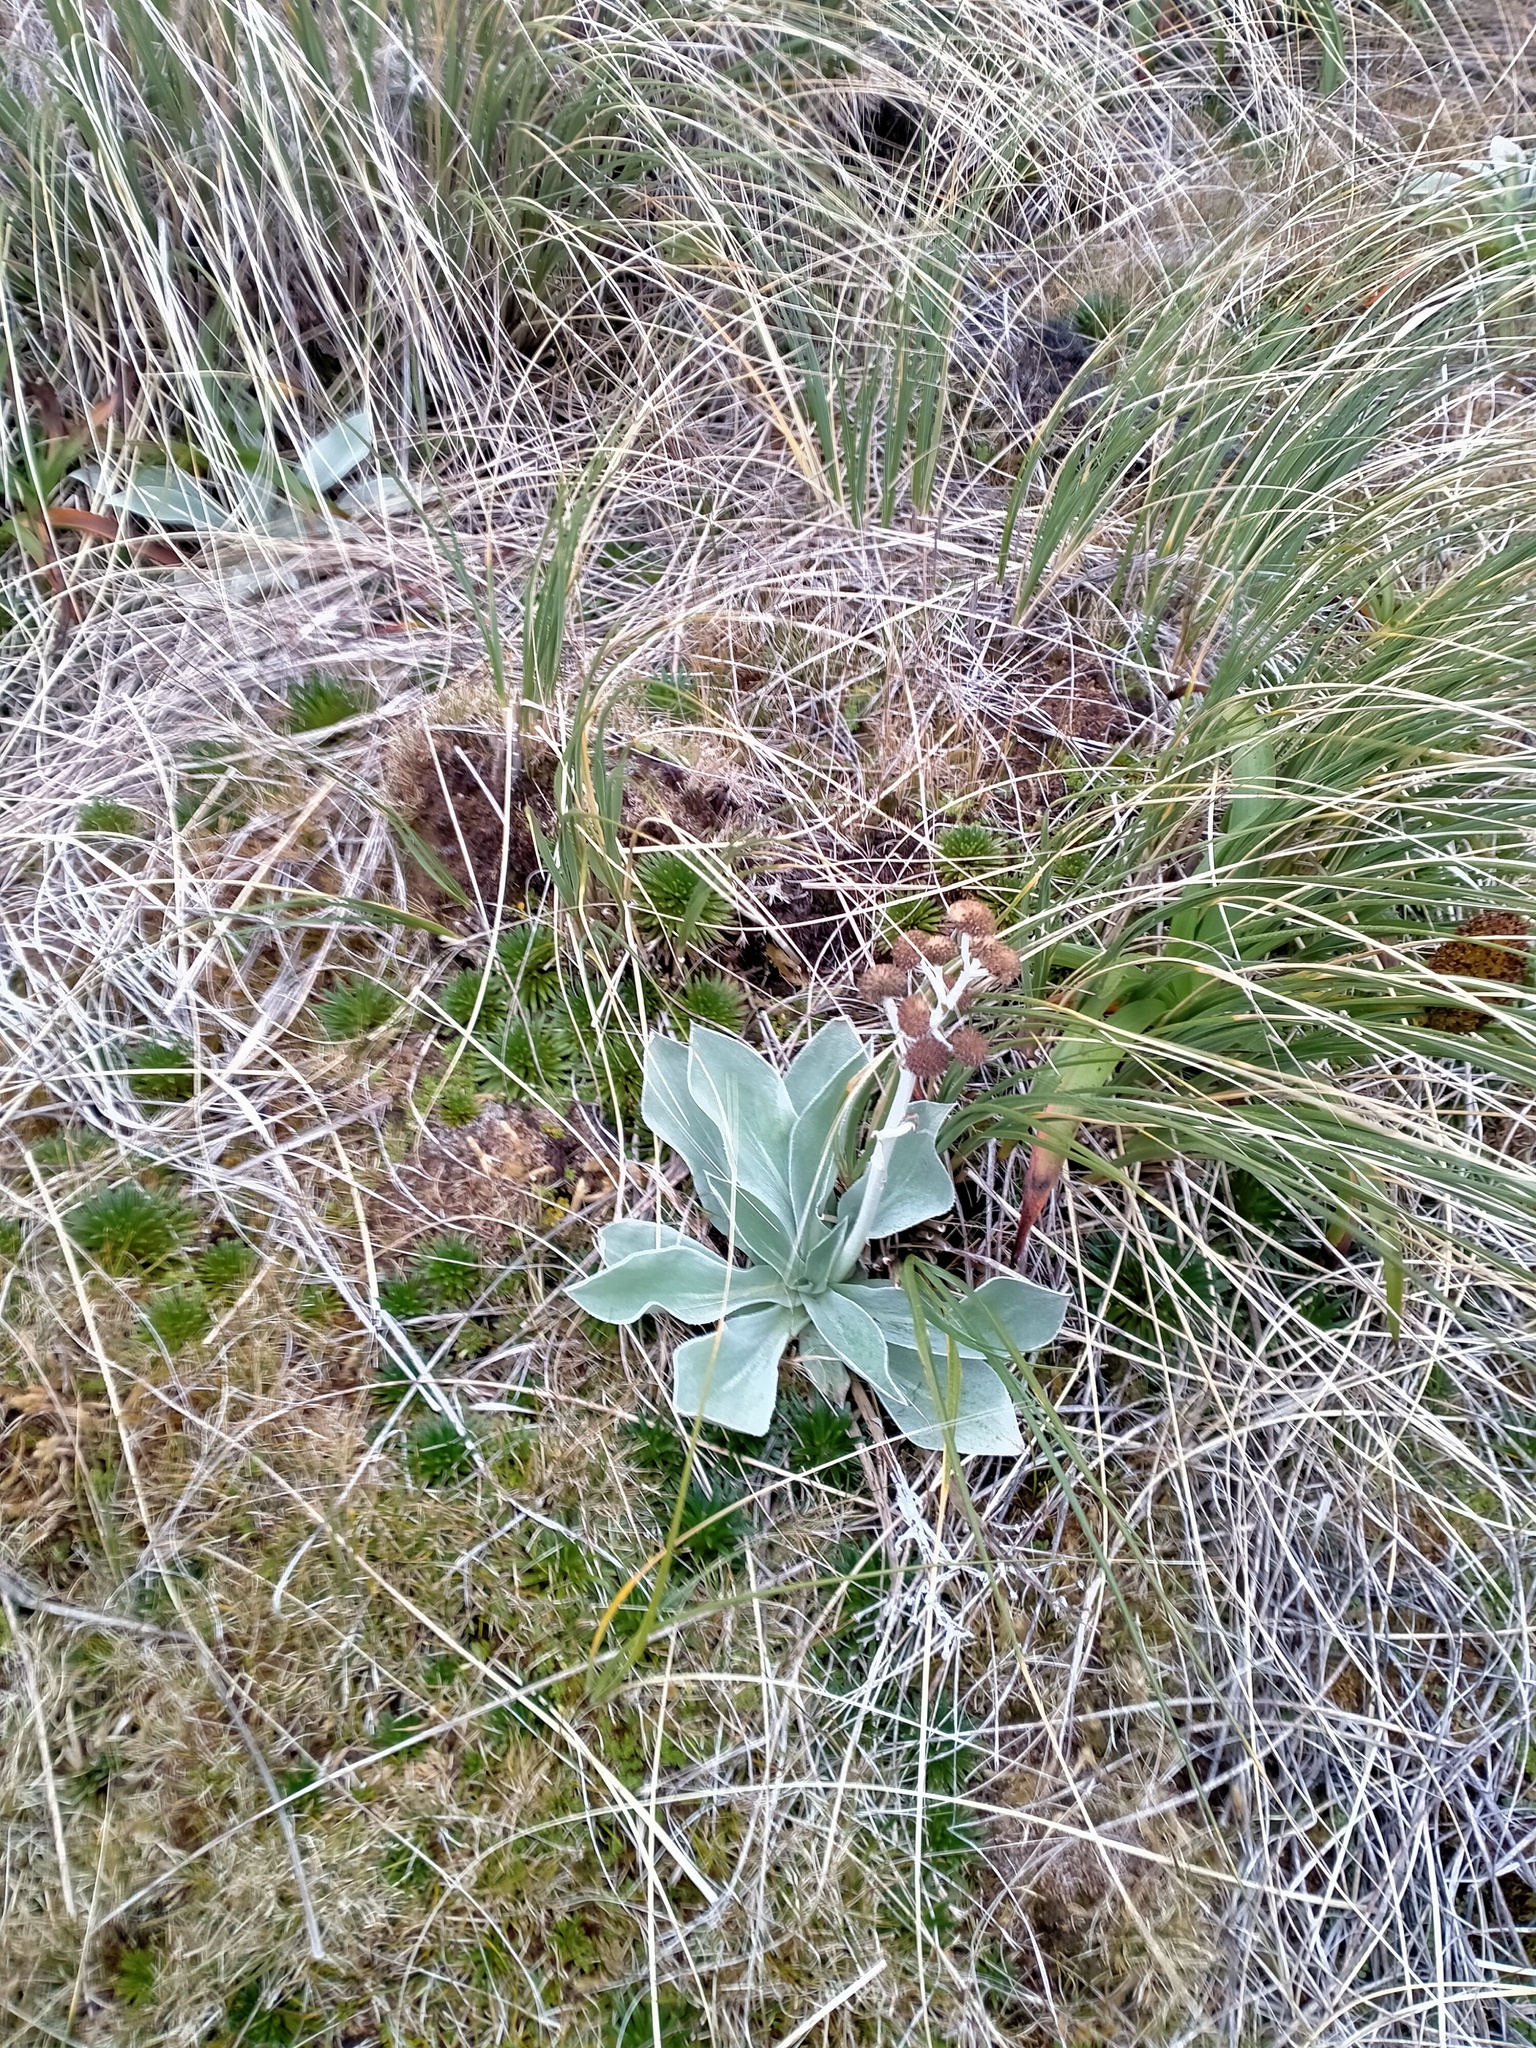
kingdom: Plantae
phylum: Tracheophyta
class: Magnoliopsida
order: Asterales
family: Asteraceae
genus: Pleurophyllum
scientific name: Pleurophyllum hookeri
